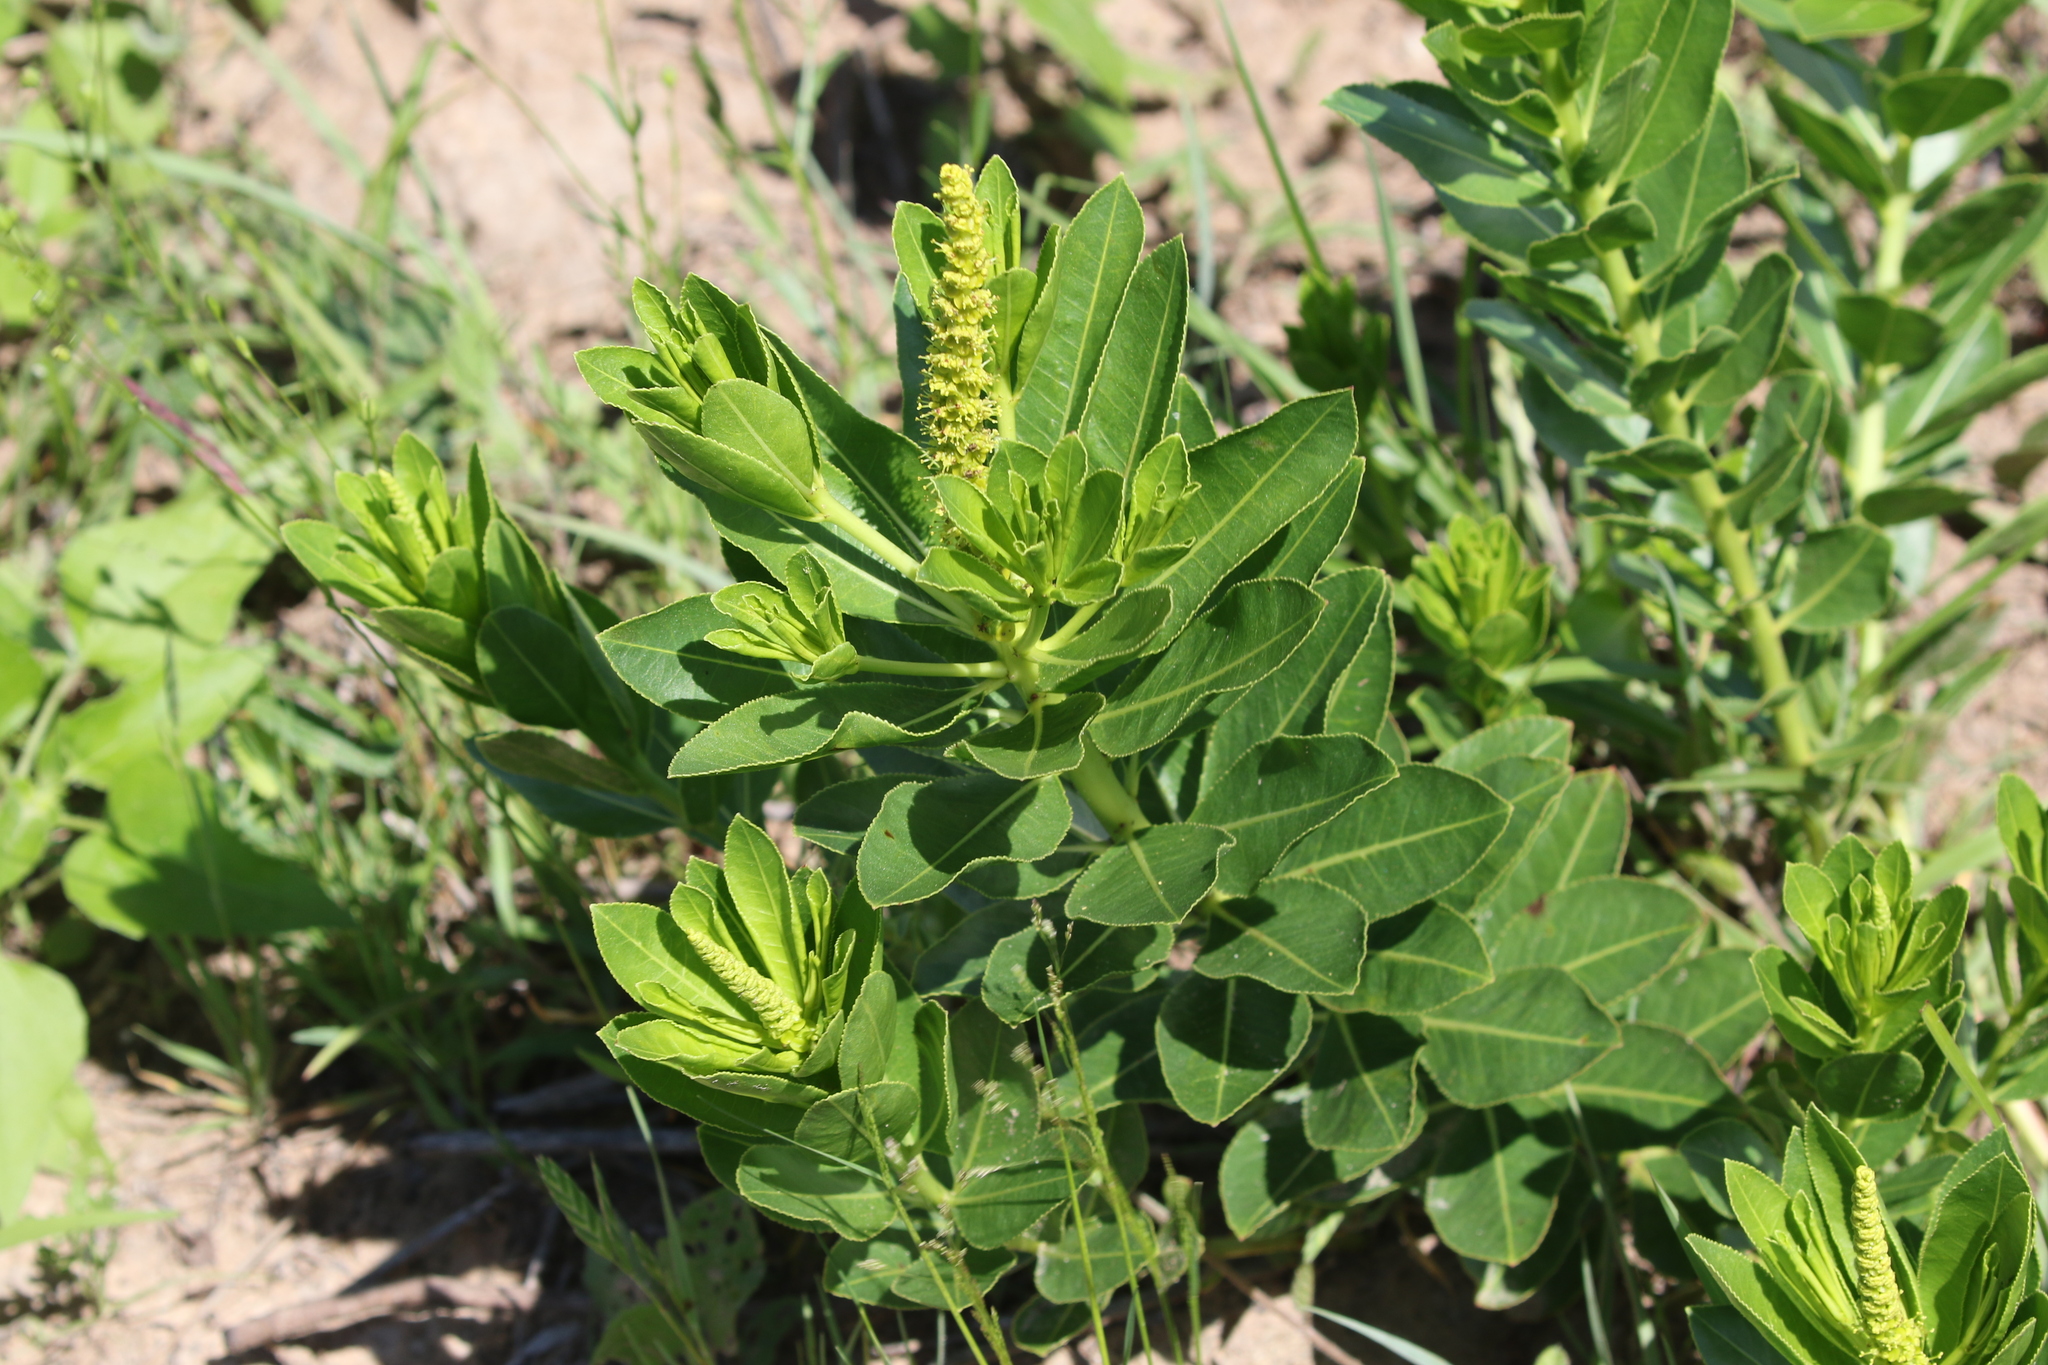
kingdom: Plantae
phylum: Tracheophyta
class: Magnoliopsida
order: Malpighiales
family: Euphorbiaceae
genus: Stillingia
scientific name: Stillingia sylvatica
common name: Queen's-delight
